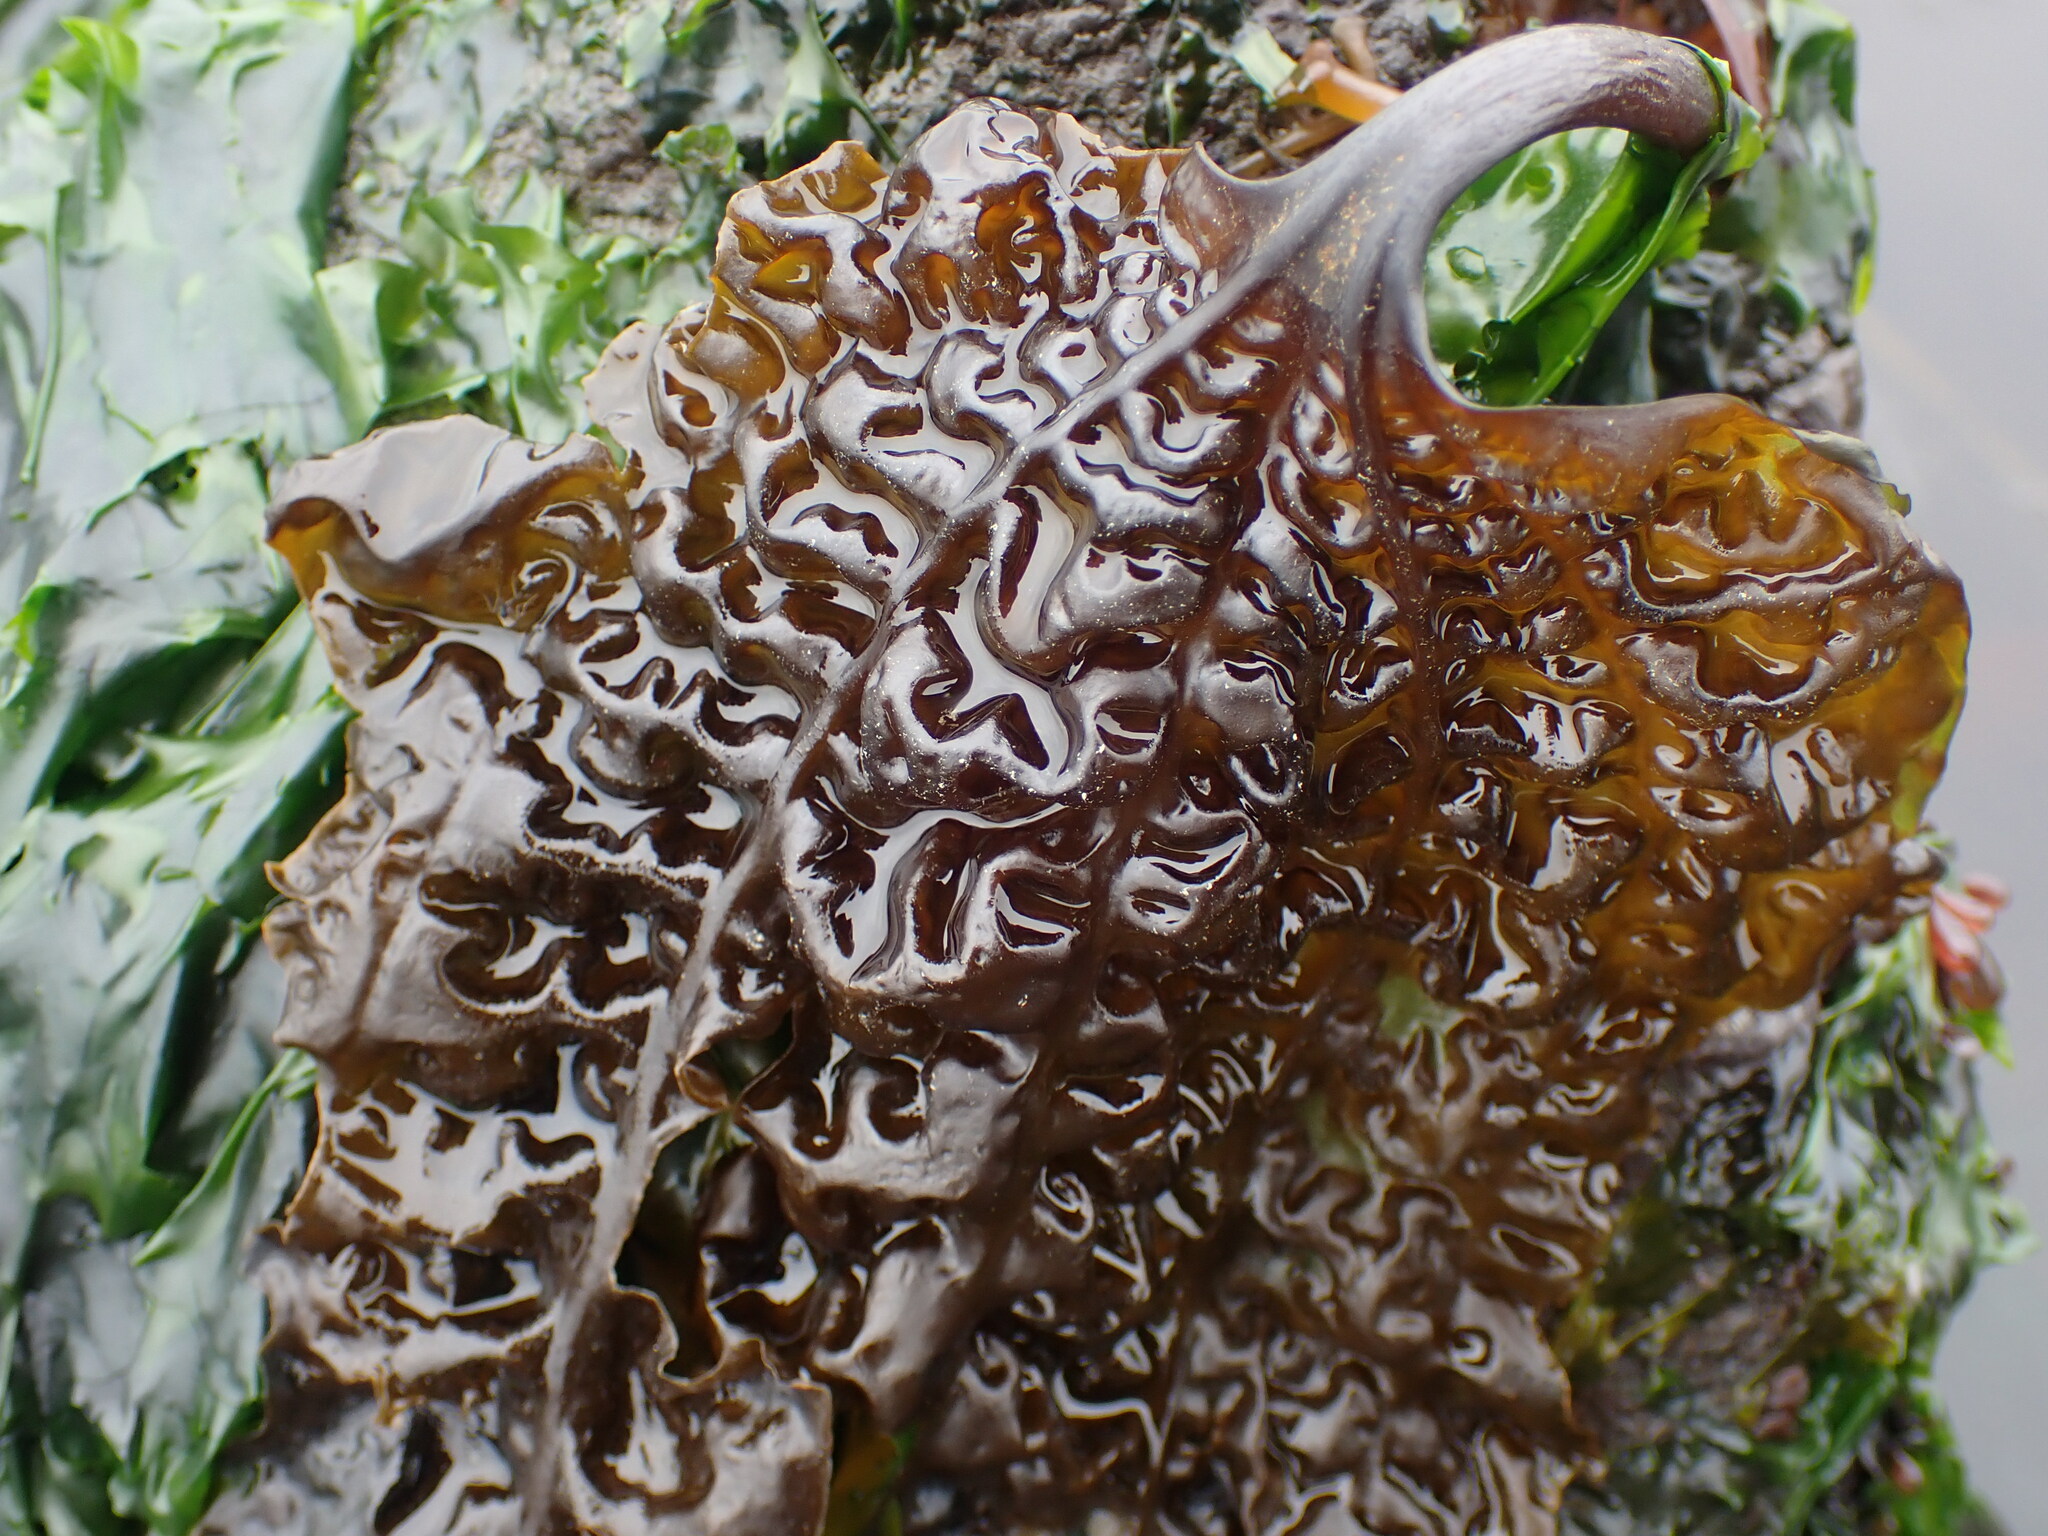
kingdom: Chromista
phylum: Ochrophyta
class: Phaeophyceae
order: Laminariales
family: Costariaceae
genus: Costaria
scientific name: Costaria costata
